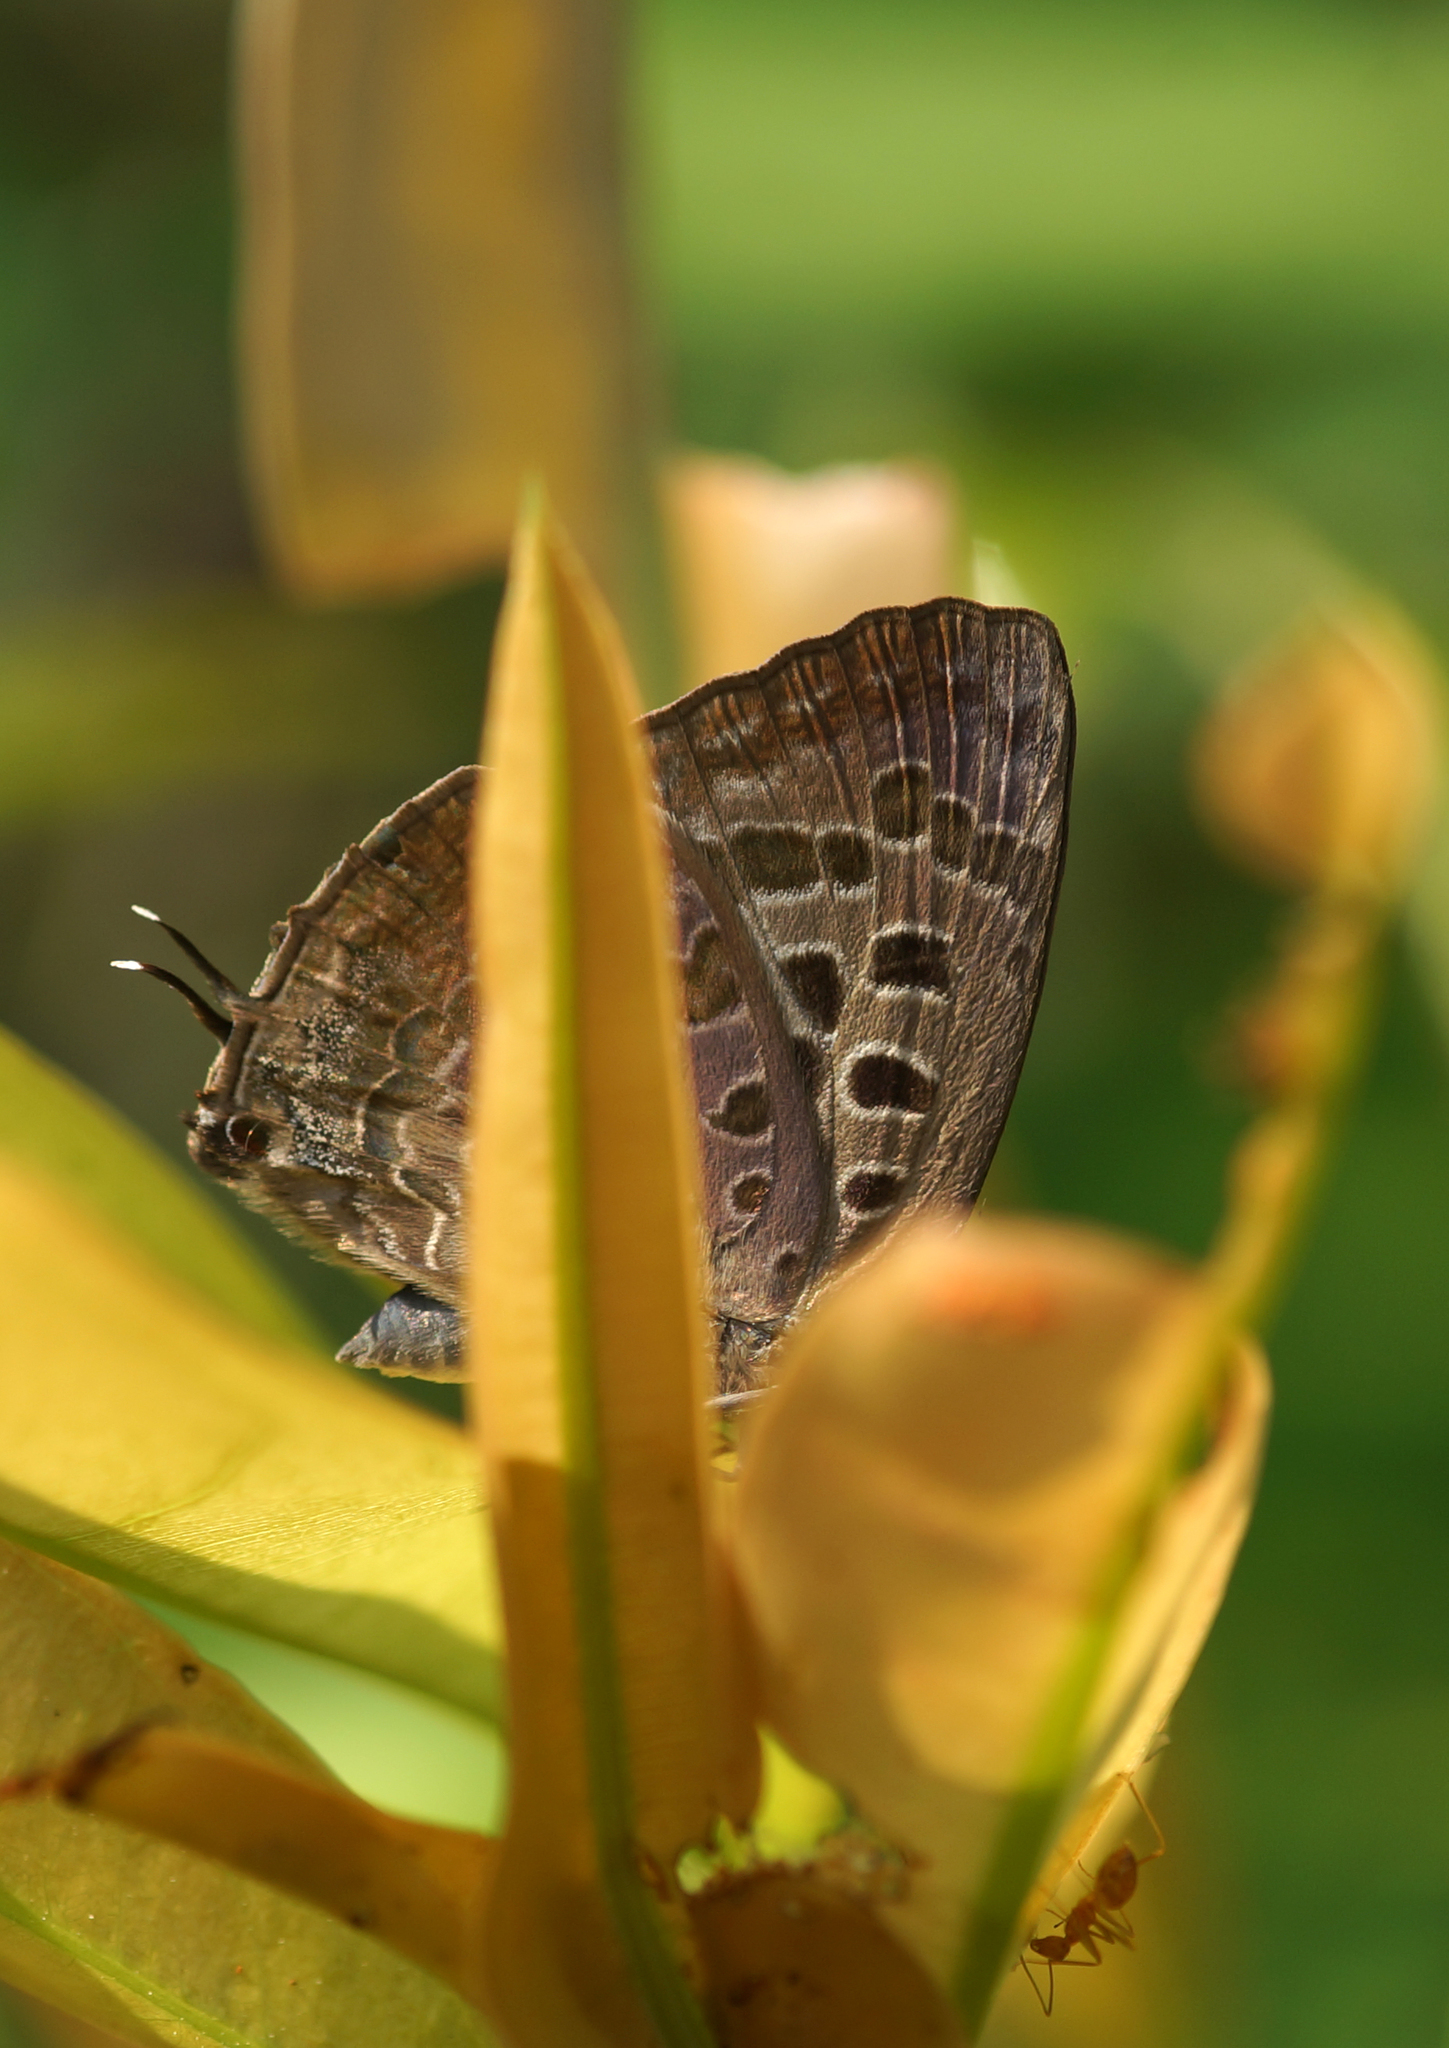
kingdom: Animalia
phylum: Arthropoda
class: Insecta
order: Lepidoptera
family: Lycaenidae
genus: Arhopala
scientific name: Arhopala eumolphus
